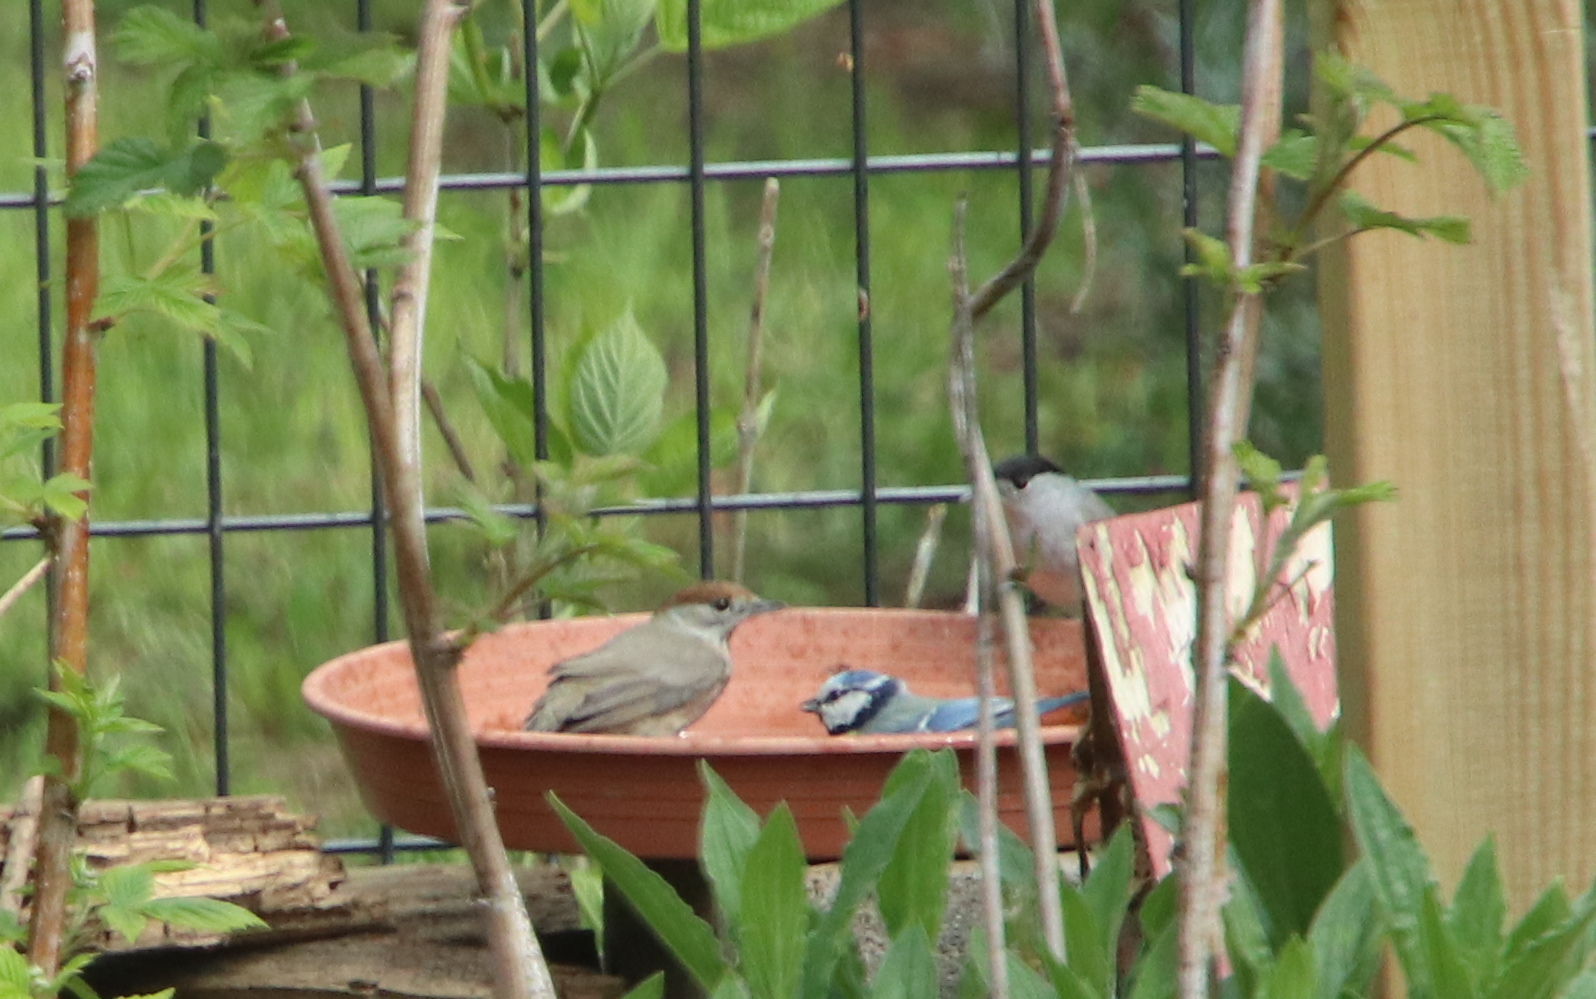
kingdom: Animalia
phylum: Chordata
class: Aves
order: Passeriformes
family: Sylviidae
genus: Sylvia
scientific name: Sylvia atricapilla
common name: Eurasian blackcap
